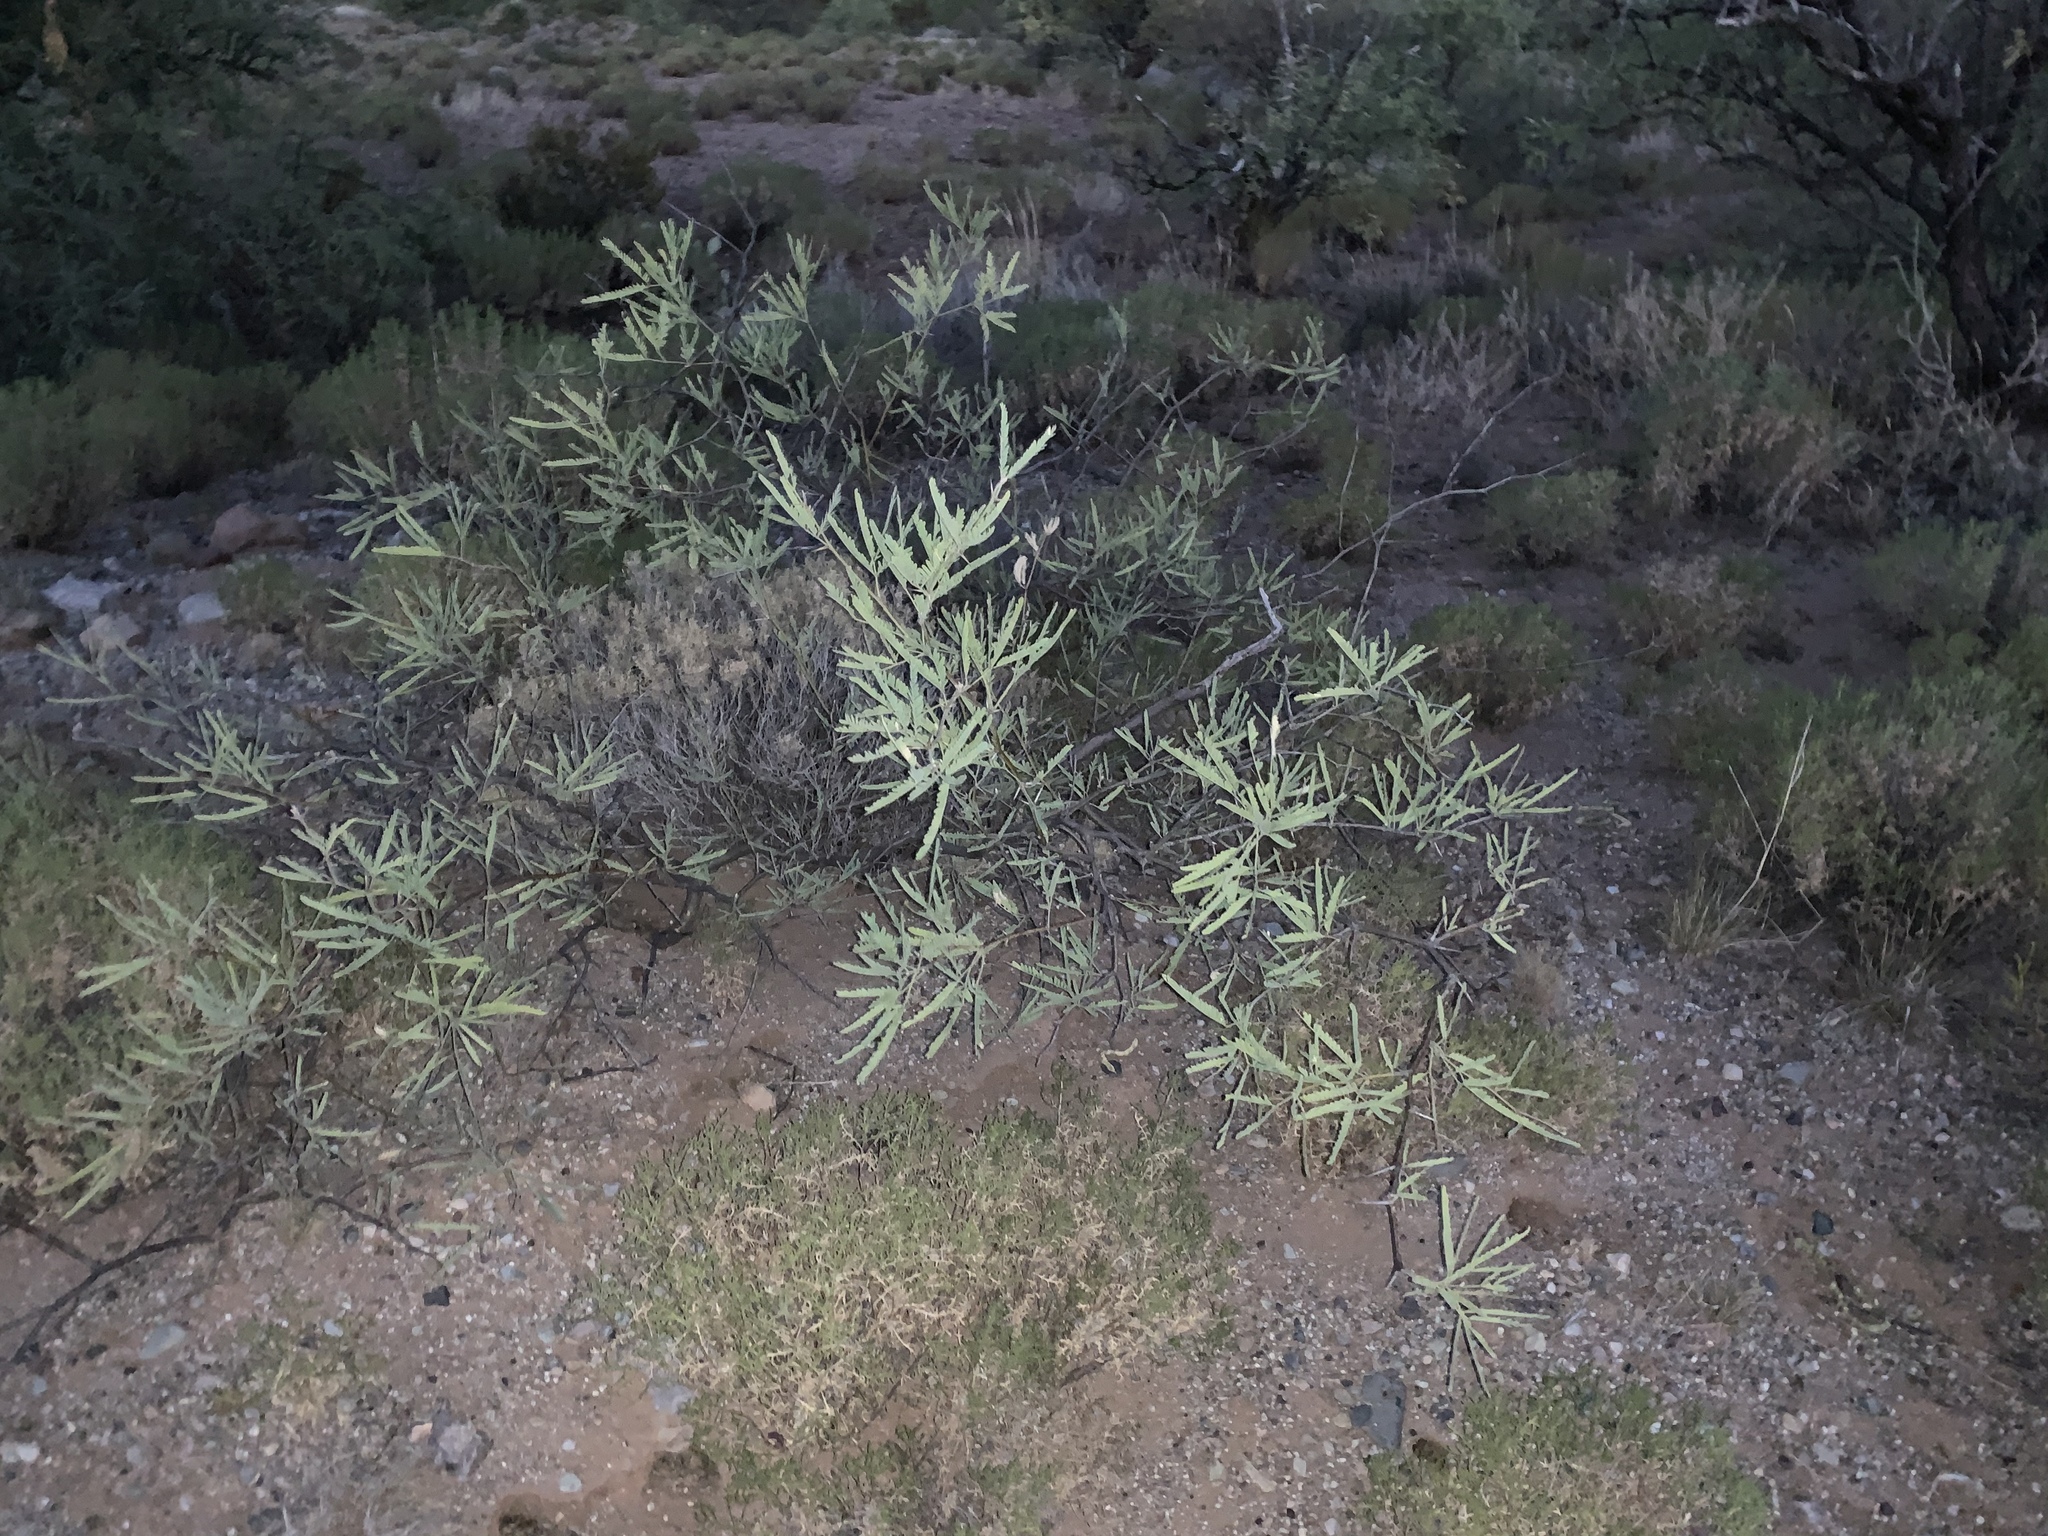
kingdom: Plantae
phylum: Tracheophyta
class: Magnoliopsida
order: Fabales
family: Fabaceae
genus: Prosopis
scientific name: Prosopis velutina
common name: Velvet mesquite
